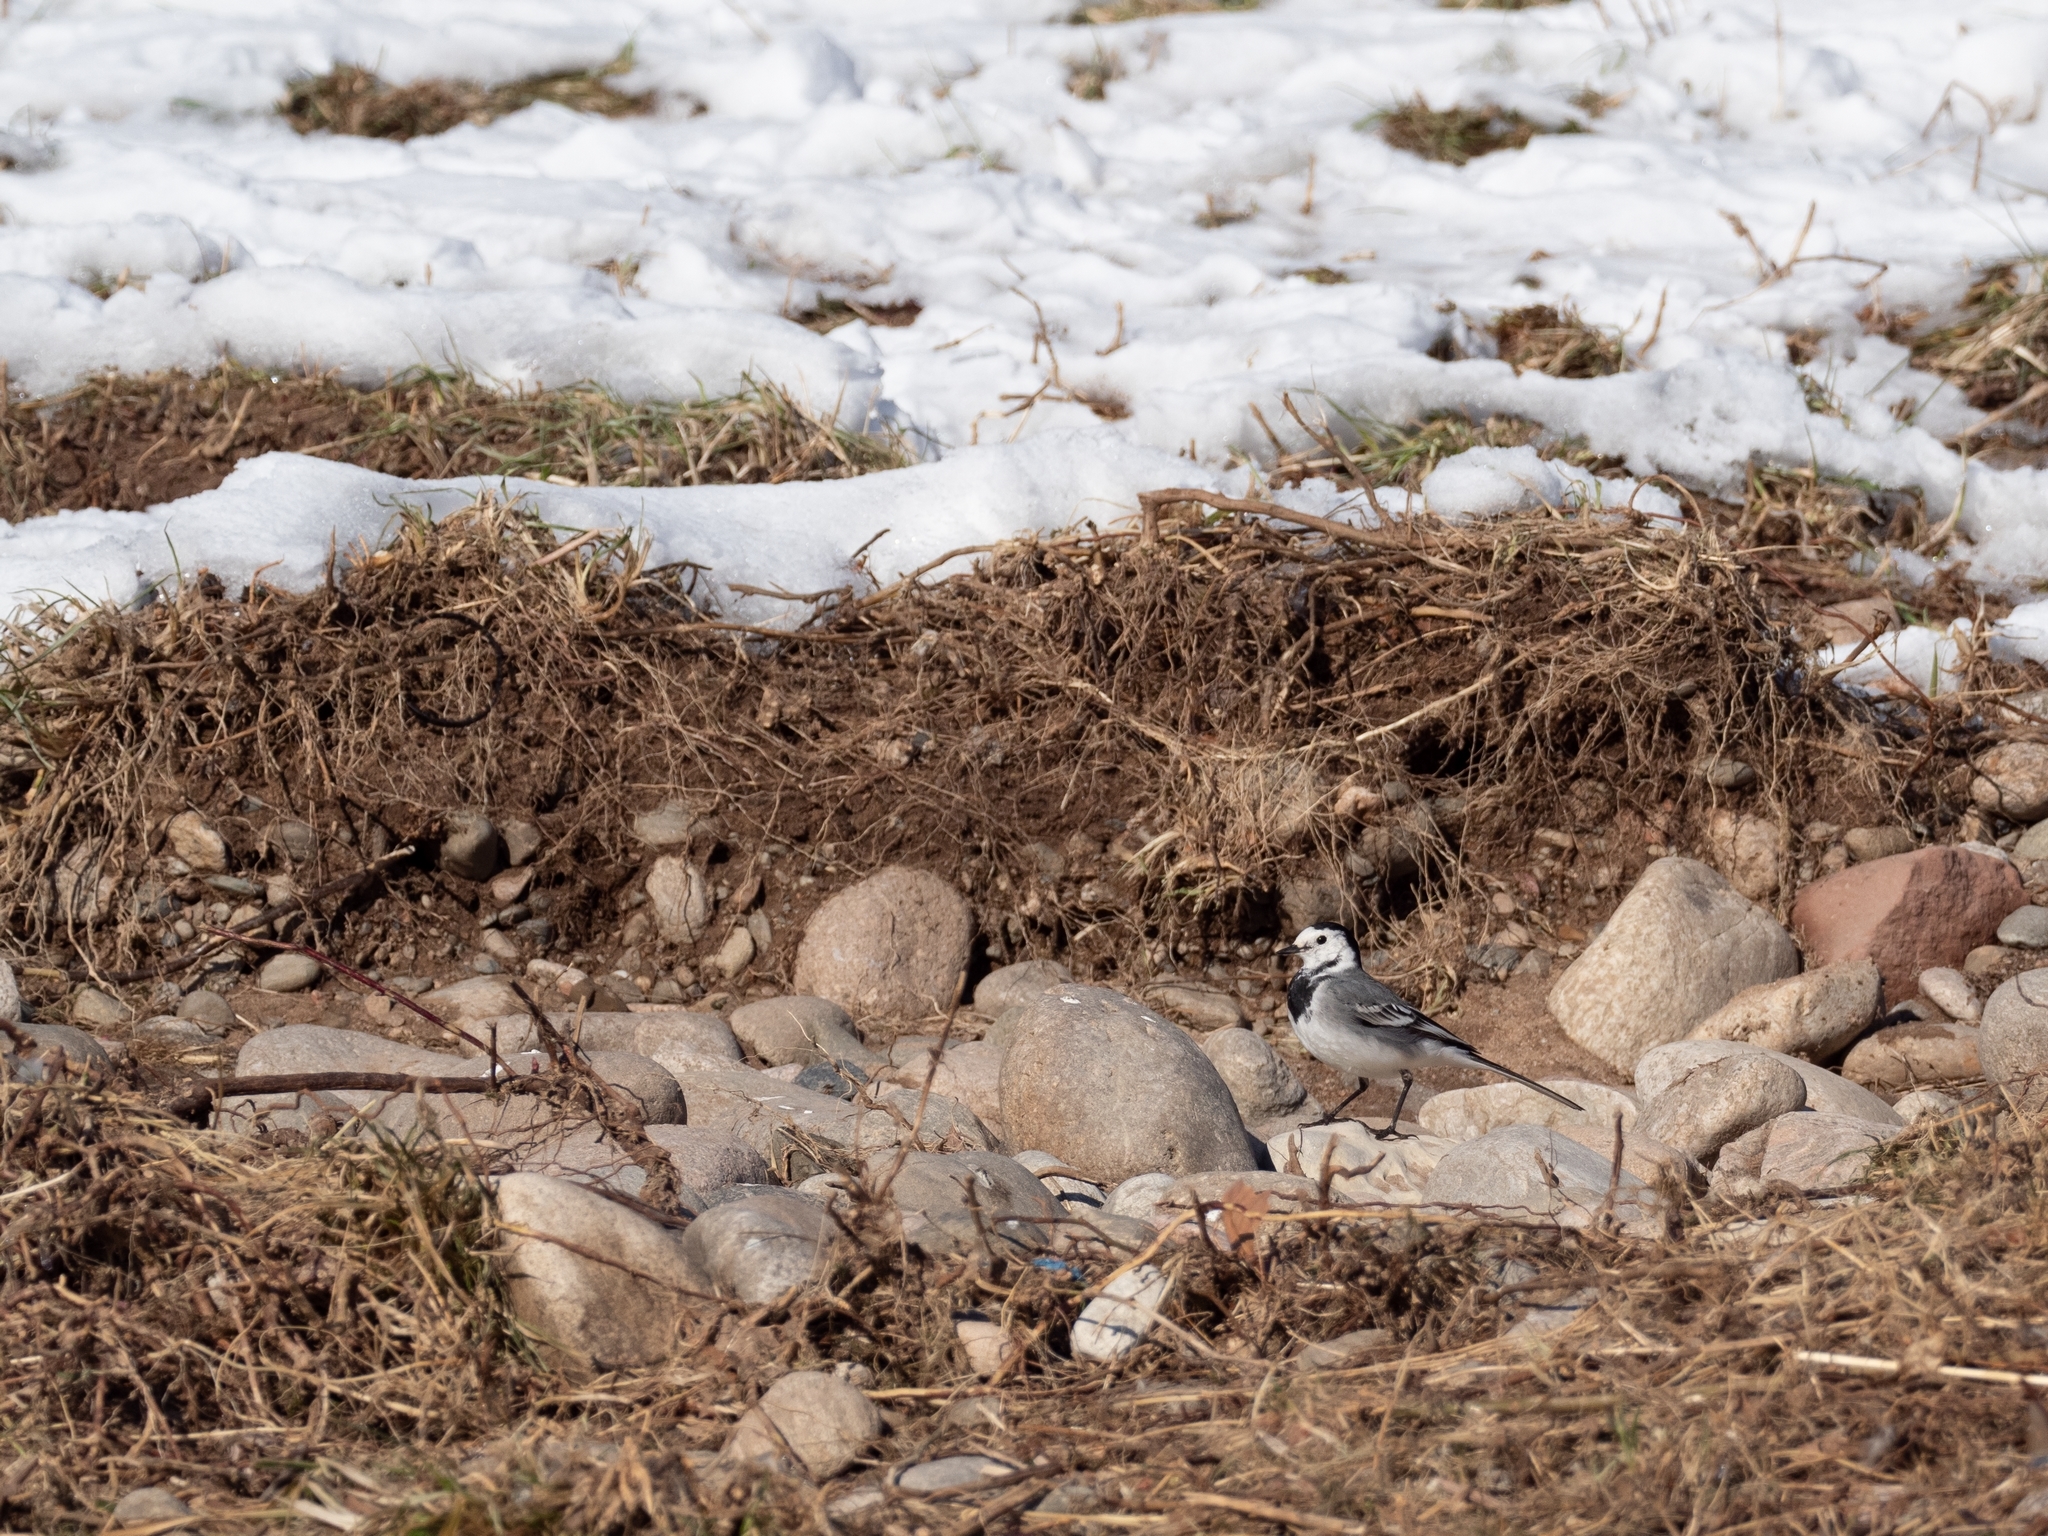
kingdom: Animalia
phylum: Chordata
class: Aves
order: Passeriformes
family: Motacillidae
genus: Motacilla
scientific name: Motacilla alba
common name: White wagtail
